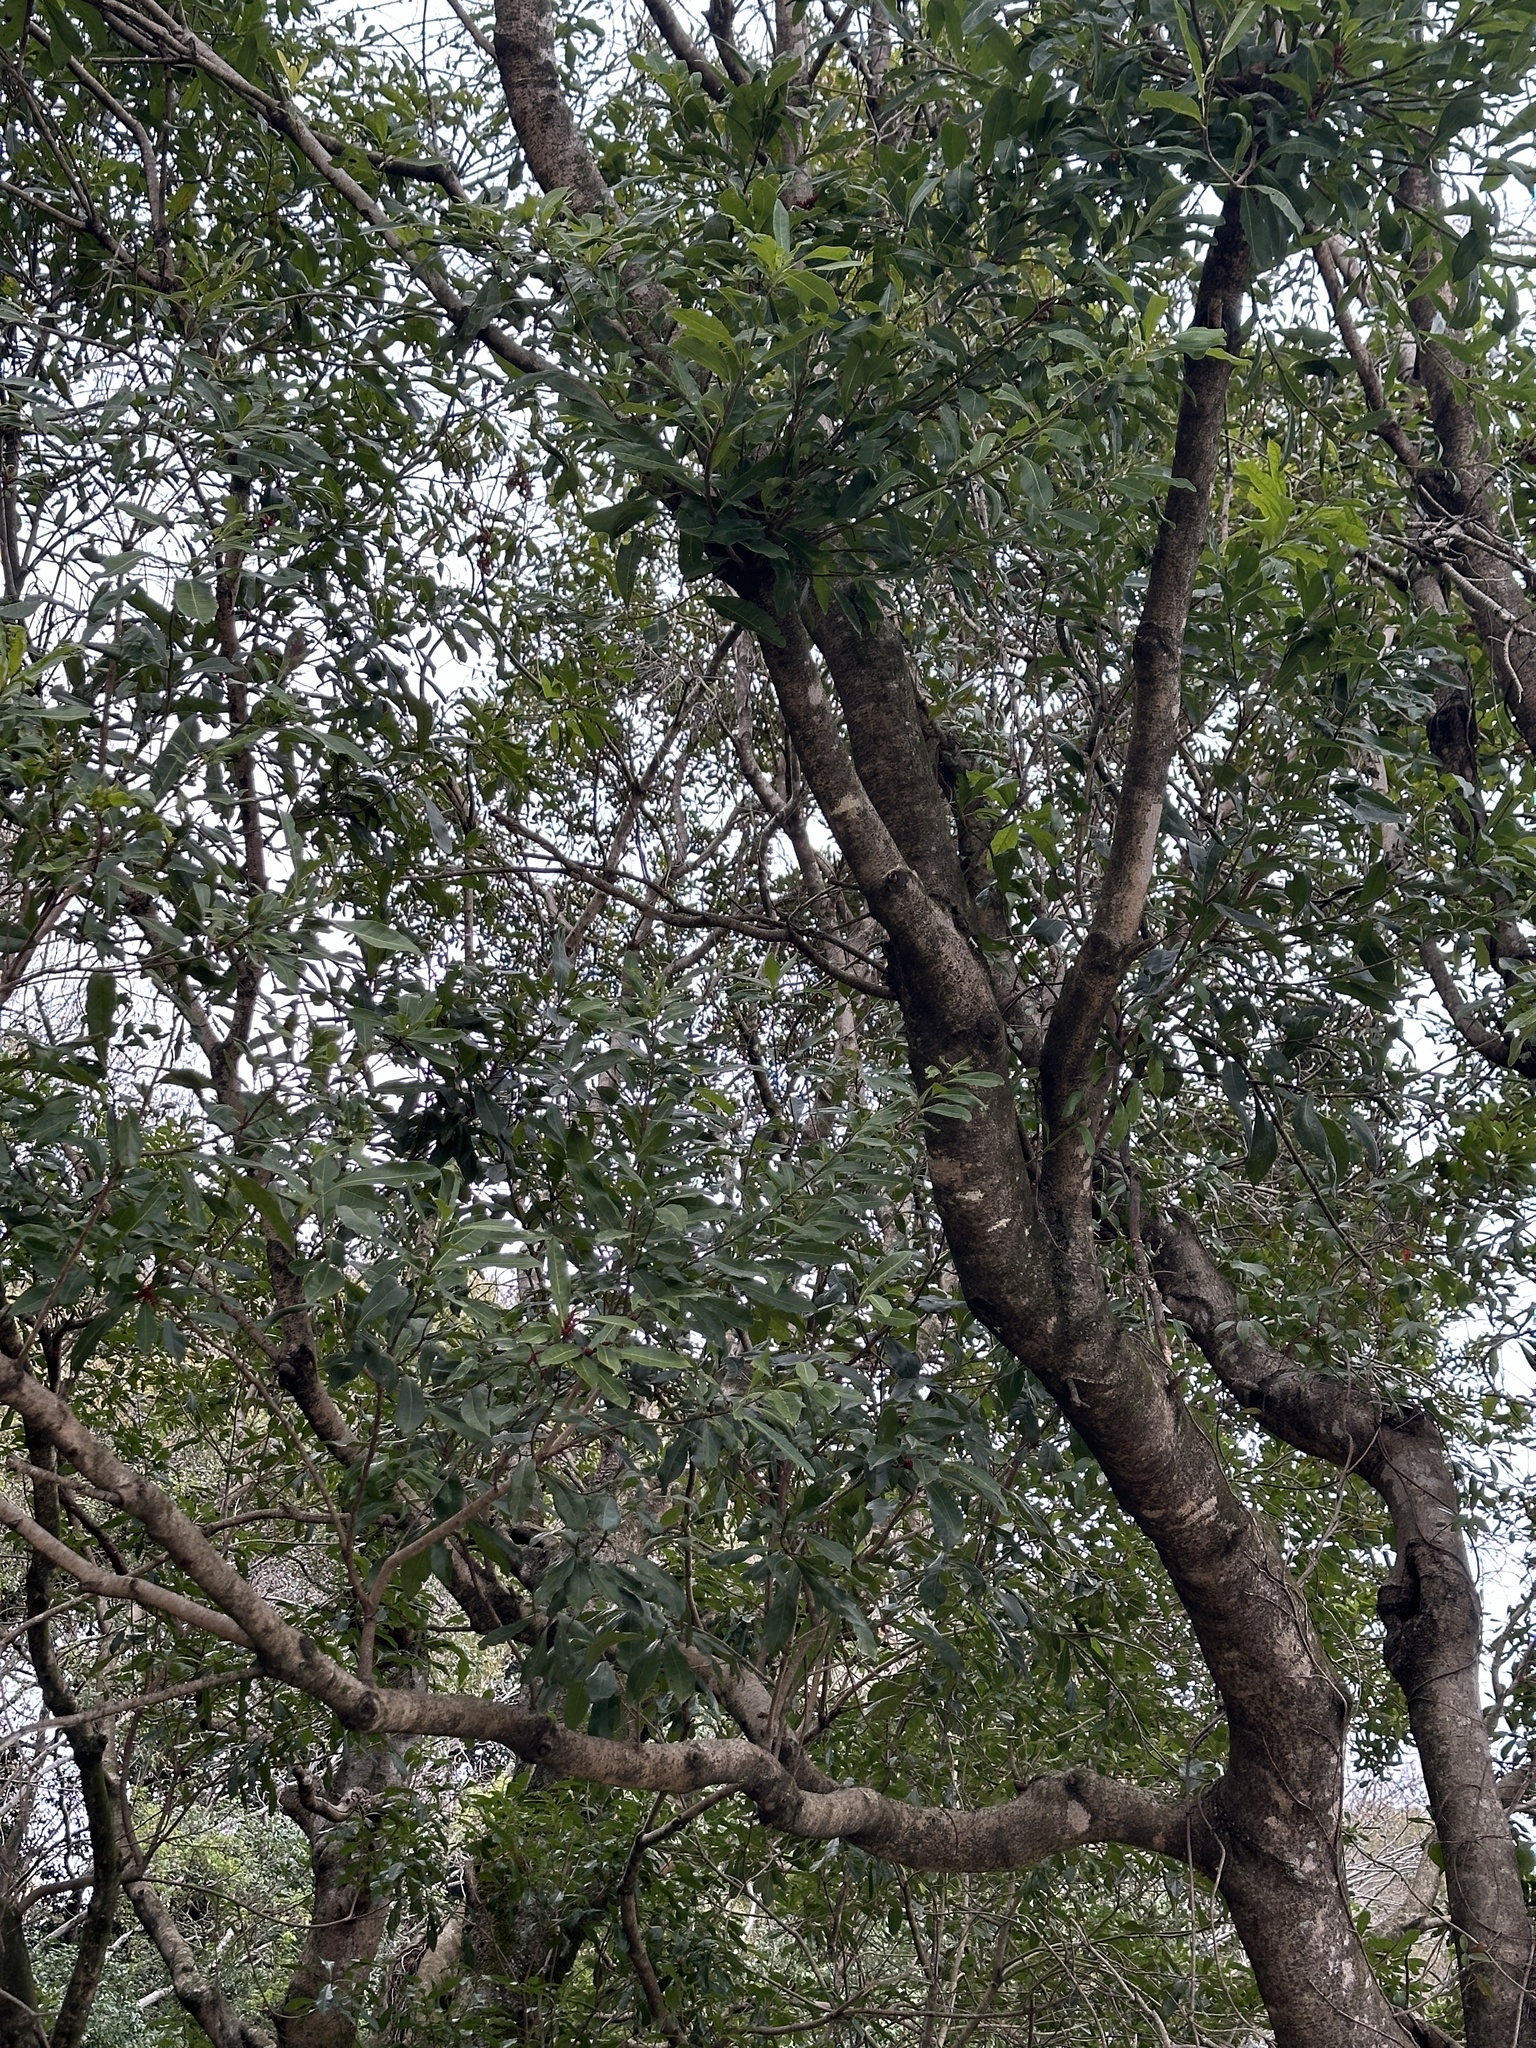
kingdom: Plantae
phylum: Tracheophyta
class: Magnoliopsida
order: Fagales
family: Myricaceae
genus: Morella
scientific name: Morella rubra
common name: Red bayberry
